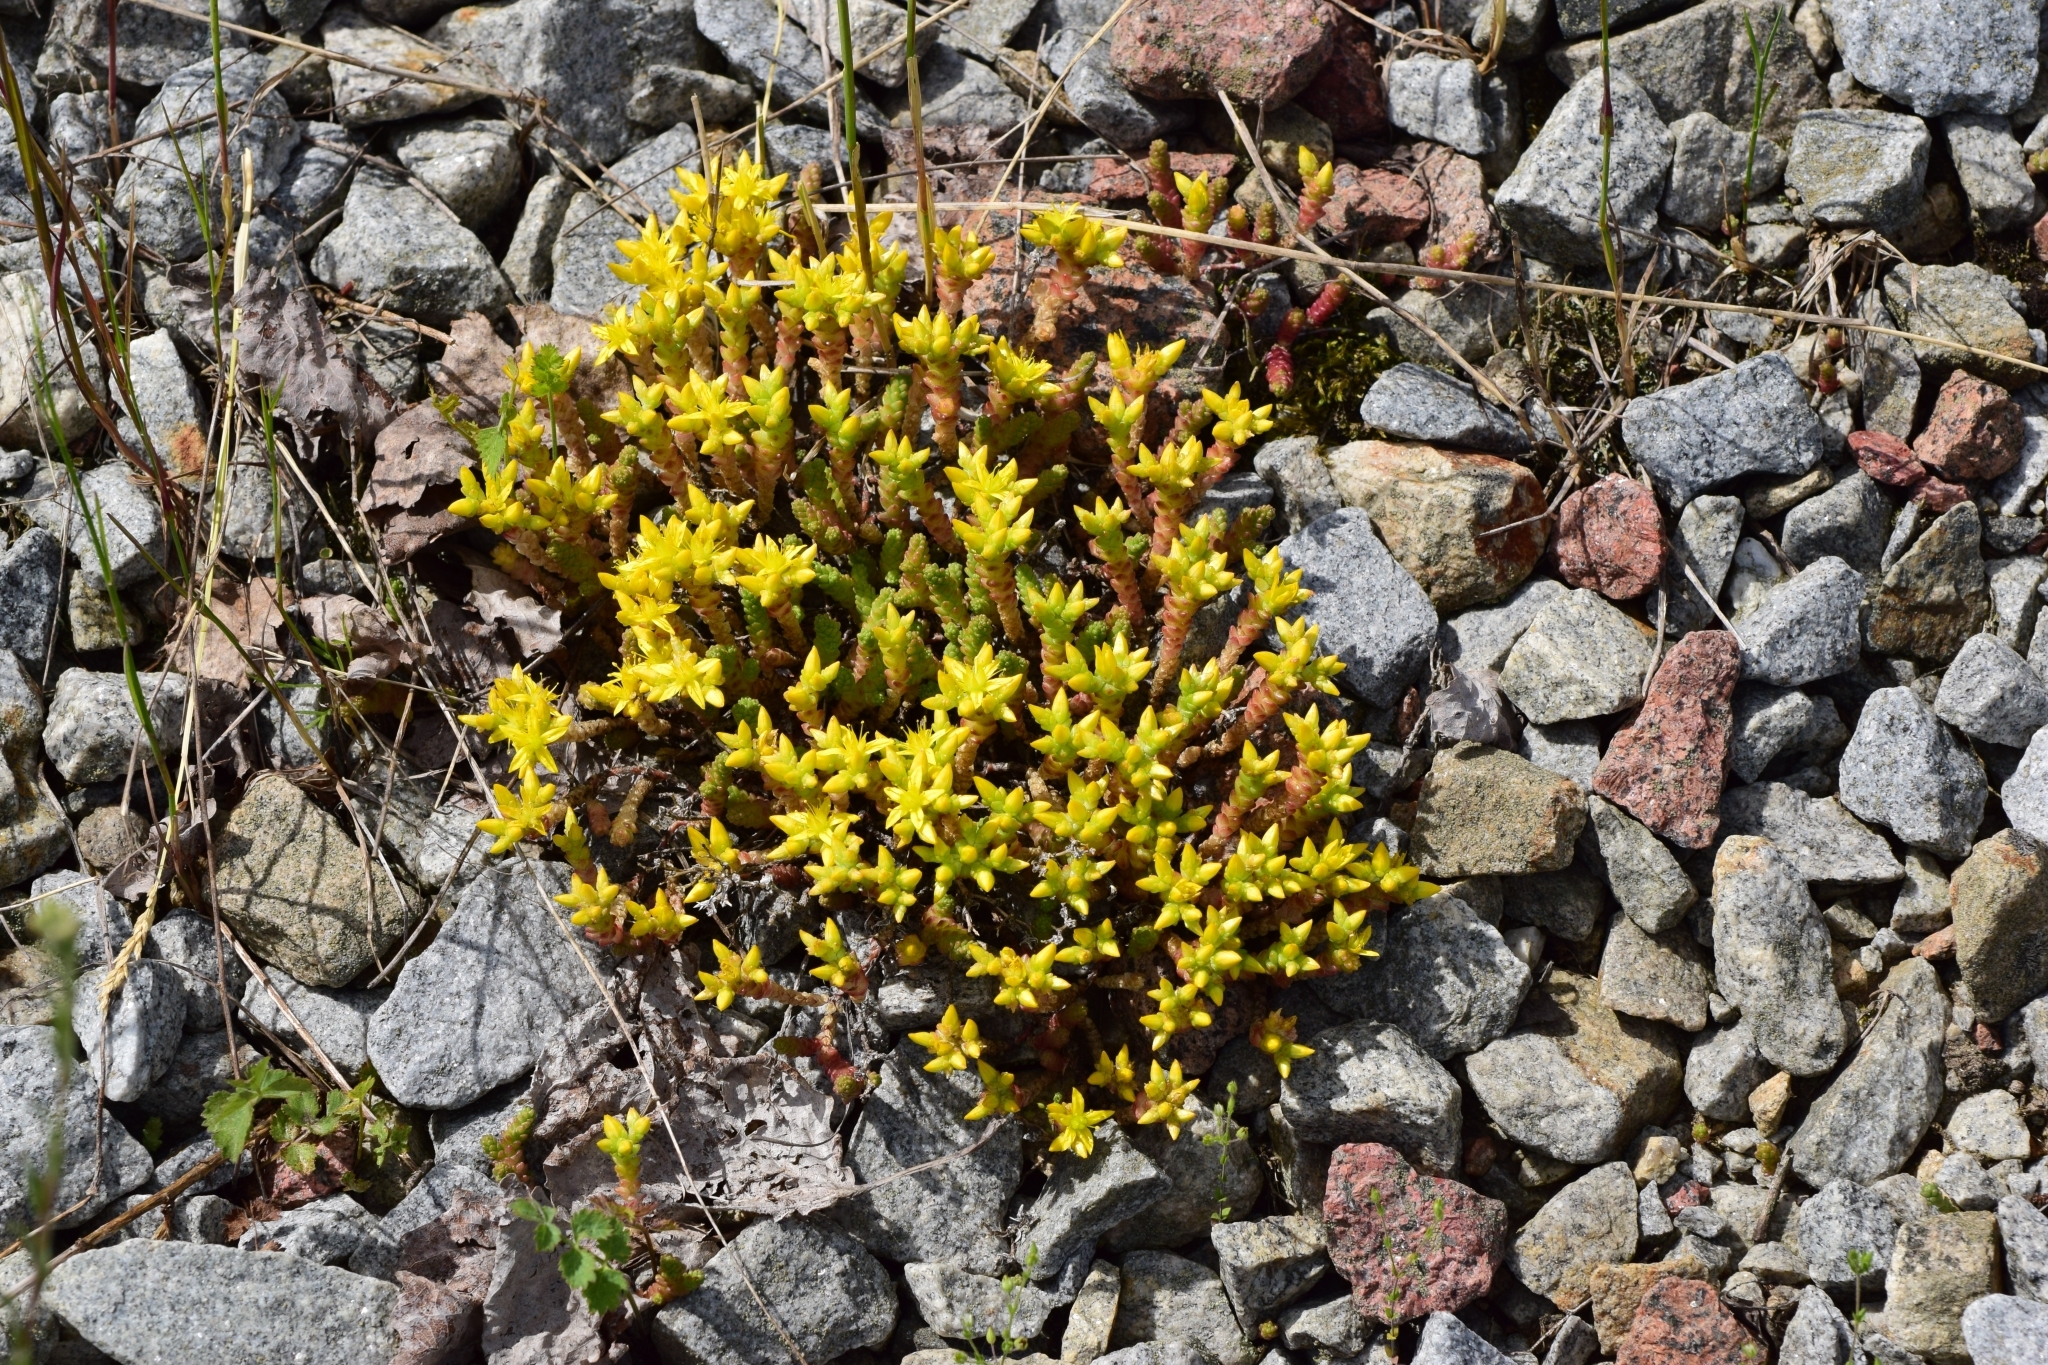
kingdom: Plantae
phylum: Tracheophyta
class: Magnoliopsida
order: Saxifragales
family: Crassulaceae
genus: Sedum
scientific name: Sedum acre
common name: Biting stonecrop
